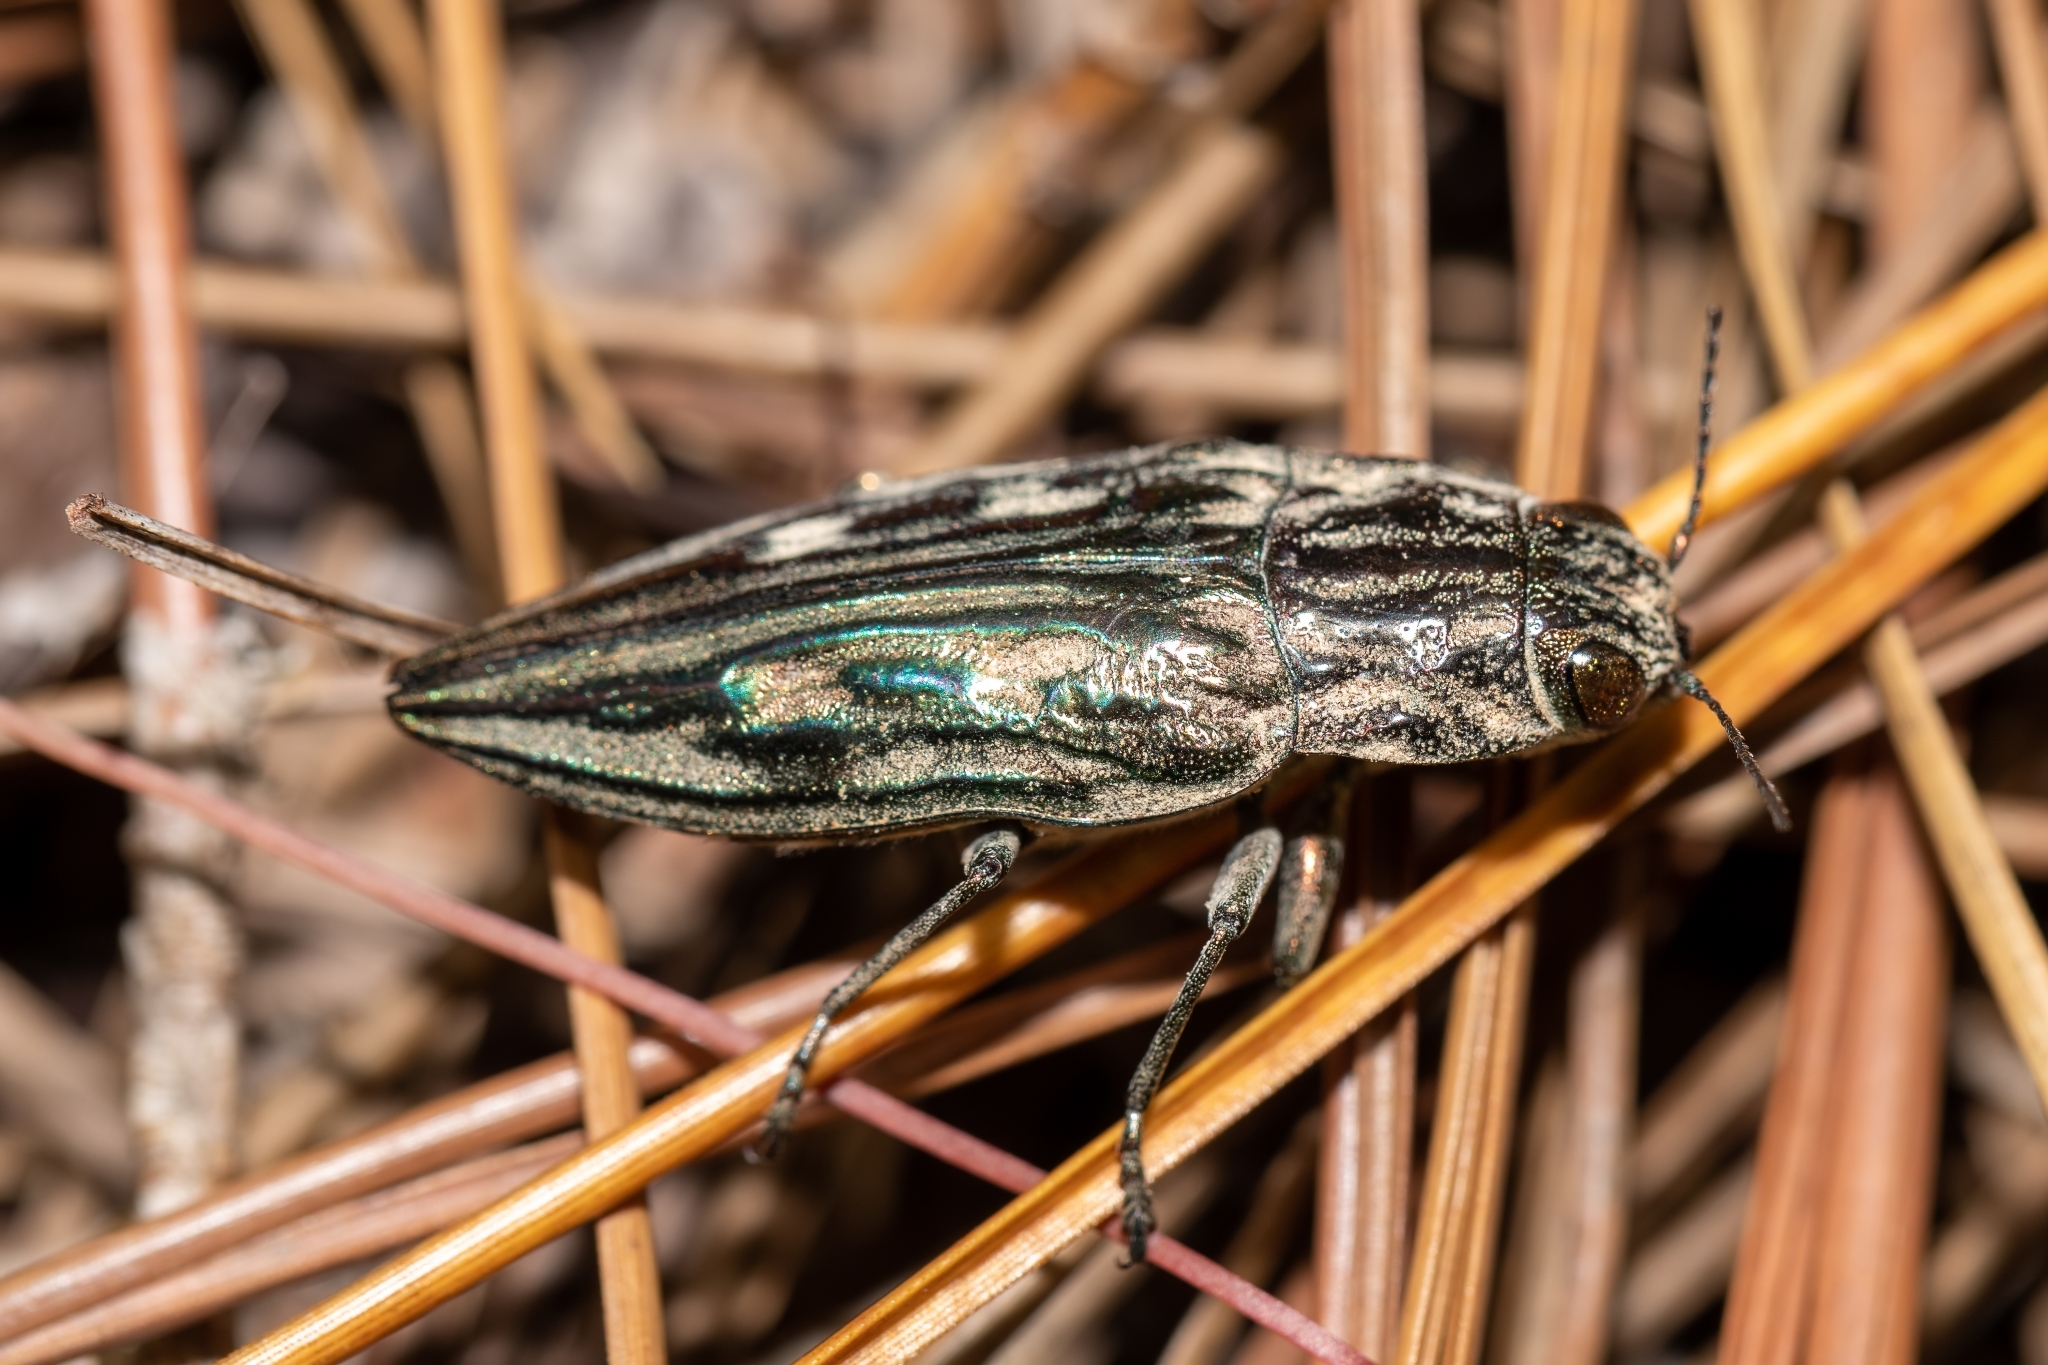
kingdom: Animalia
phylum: Arthropoda
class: Insecta
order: Coleoptera
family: Buprestidae
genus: Chalcophora
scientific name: Chalcophora georgiana
